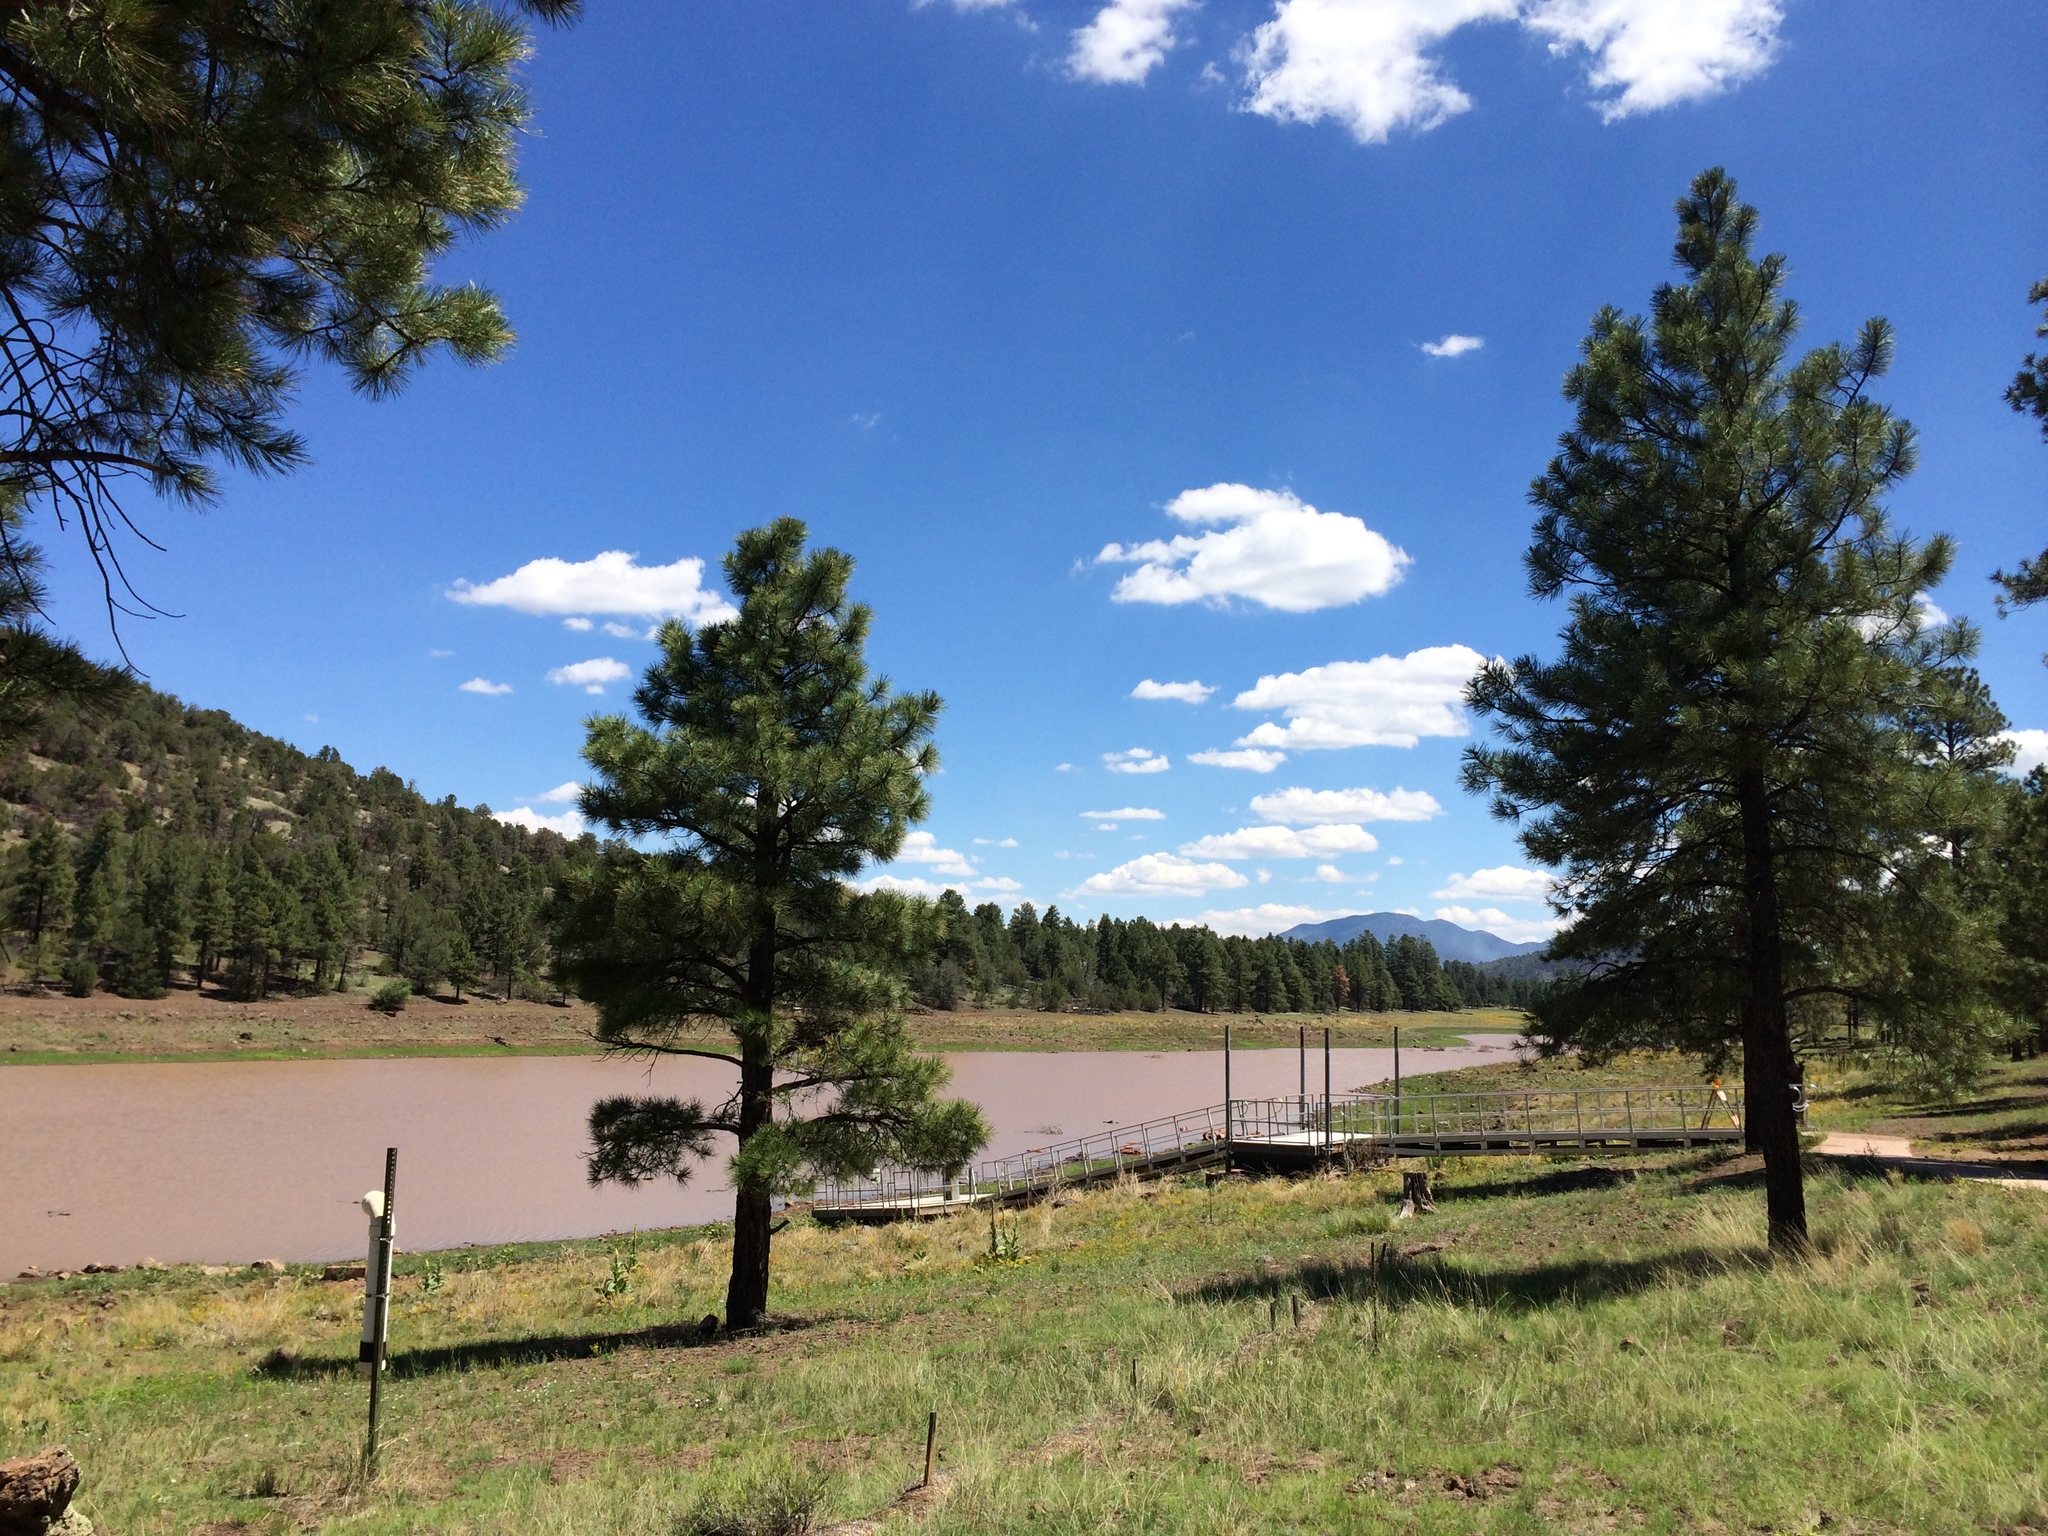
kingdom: Plantae
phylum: Tracheophyta
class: Pinopsida
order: Pinales
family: Pinaceae
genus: Pinus
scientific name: Pinus ponderosa
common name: Western yellow-pine
